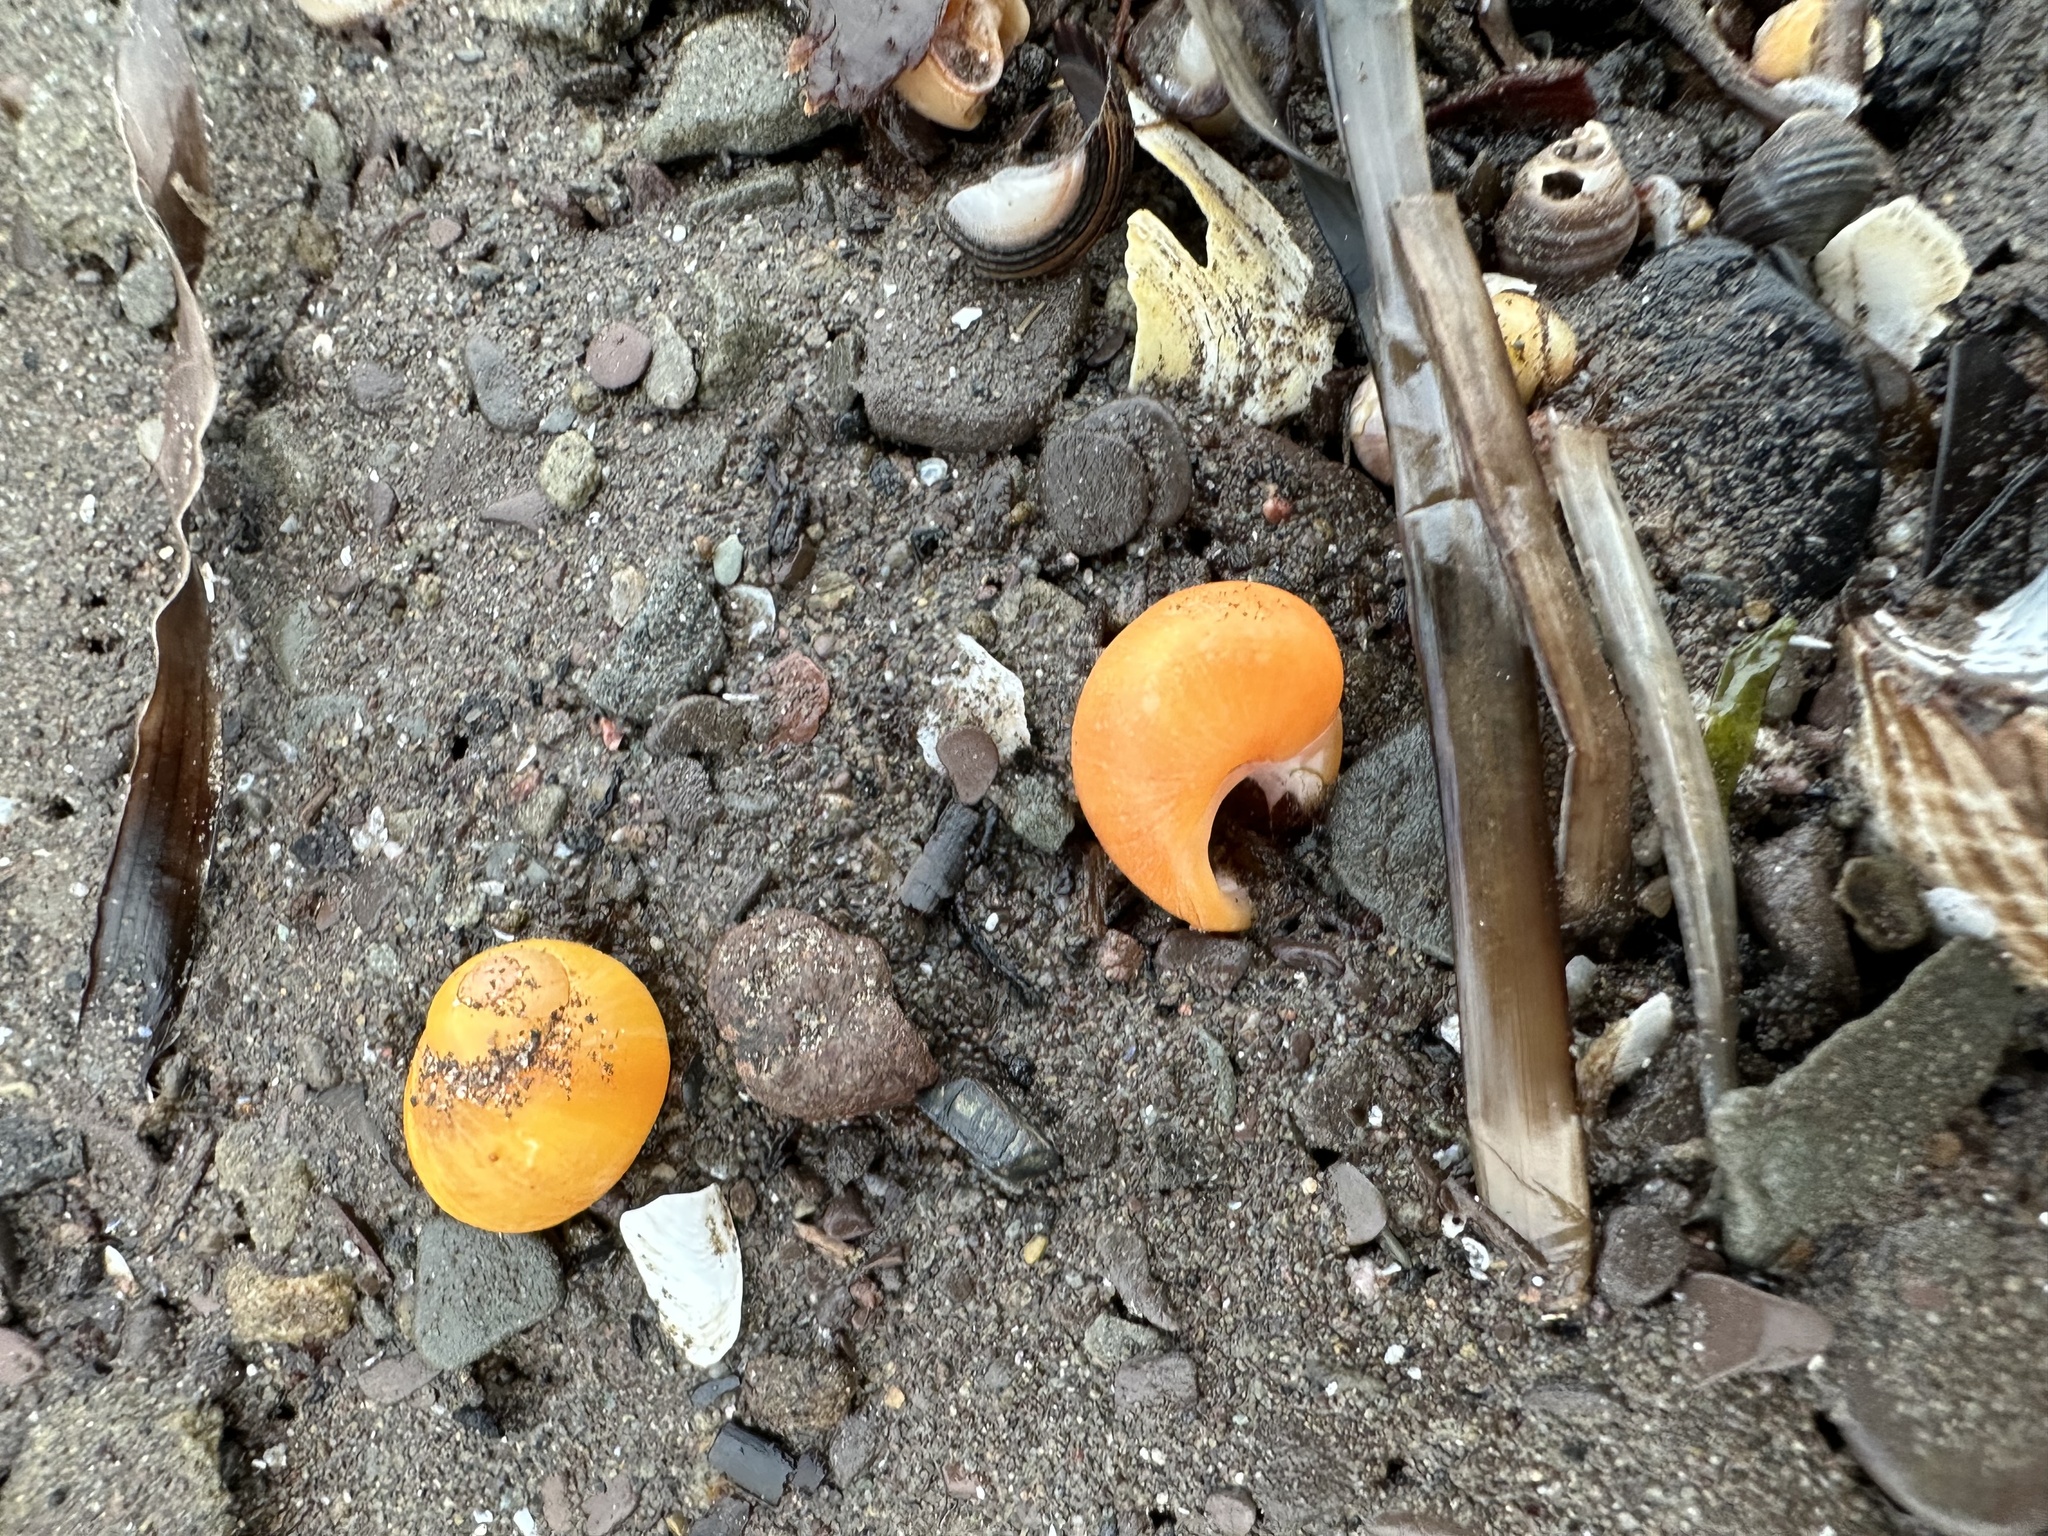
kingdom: Animalia
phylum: Mollusca
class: Gastropoda
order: Littorinimorpha
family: Littorinidae
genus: Littorina
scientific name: Littorina obtusata
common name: Flat periwinkle
